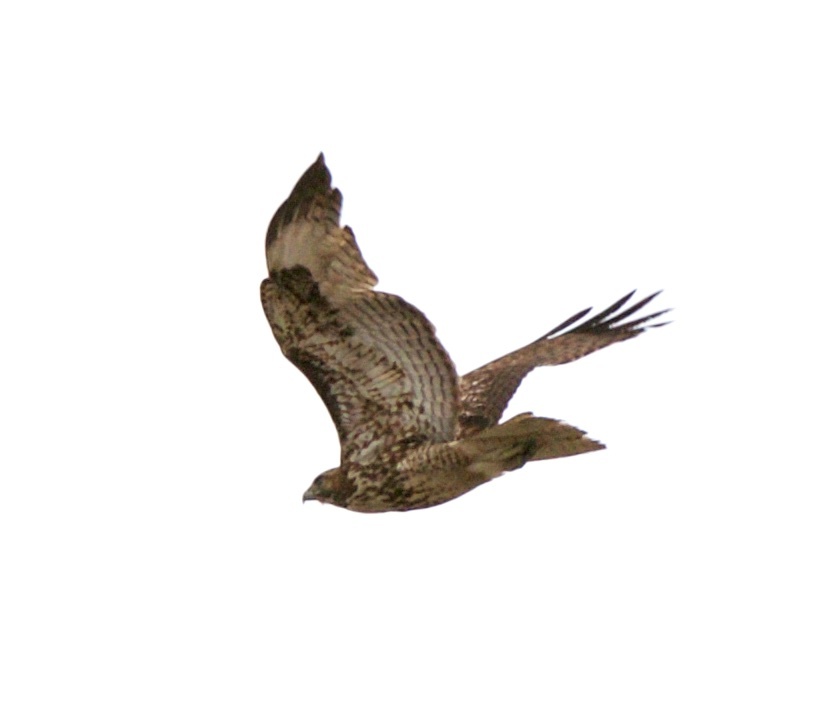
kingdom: Animalia
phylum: Chordata
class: Aves
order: Accipitriformes
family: Accipitridae
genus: Buteo
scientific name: Buteo jamaicensis
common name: Red-tailed hawk
